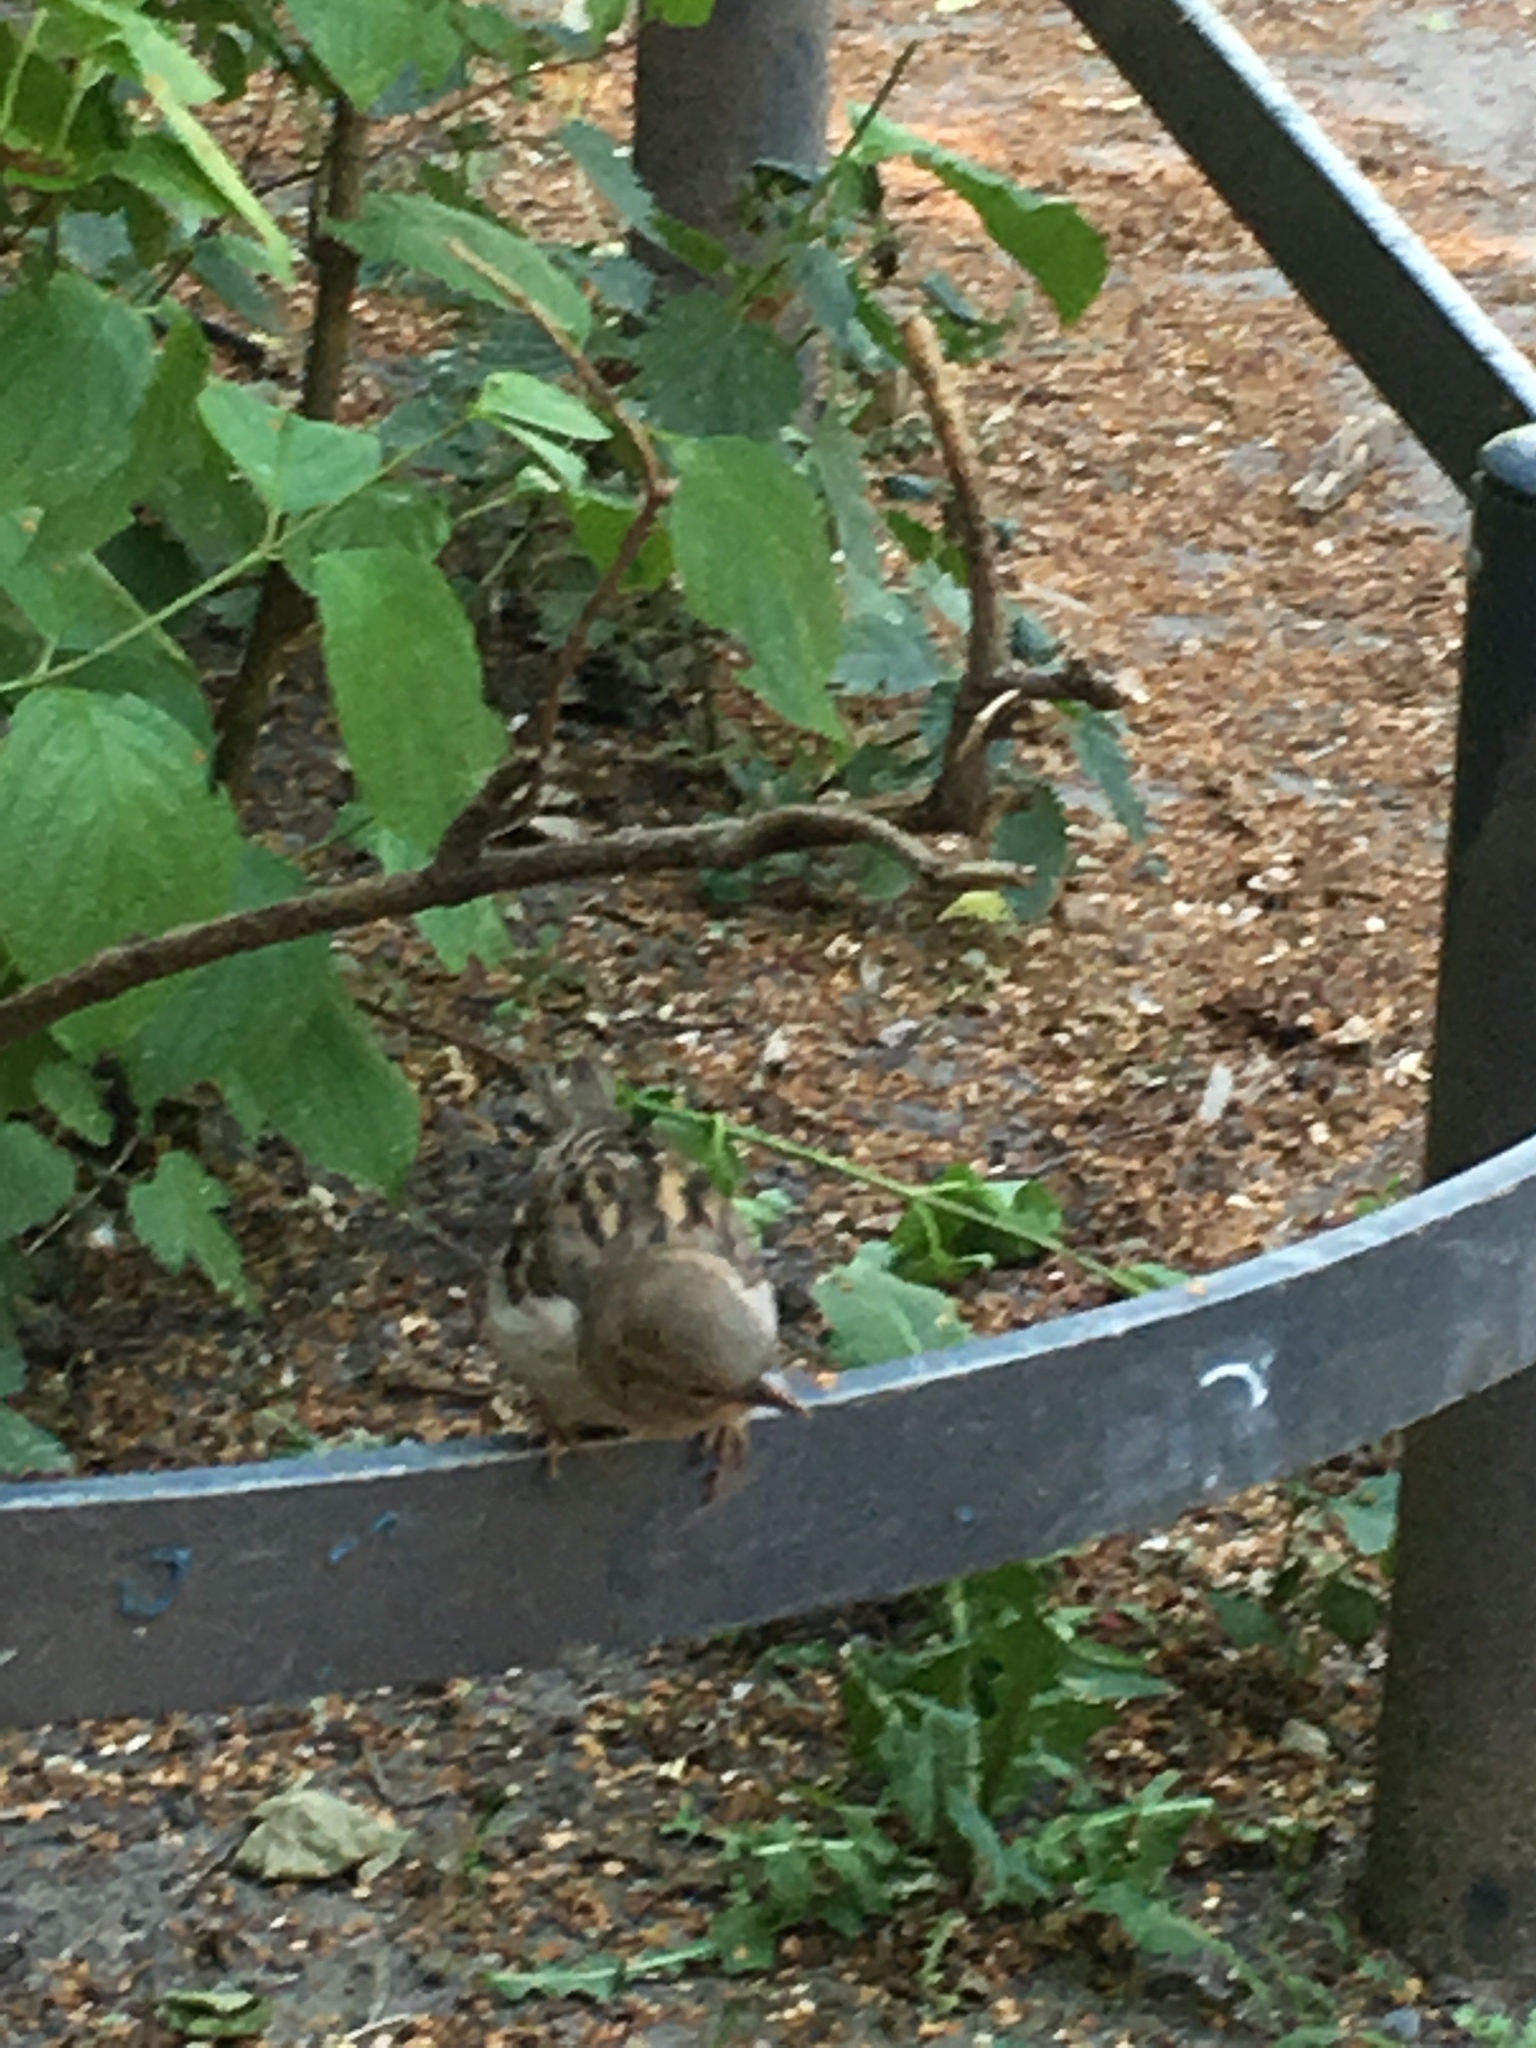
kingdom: Animalia
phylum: Chordata
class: Aves
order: Passeriformes
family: Passeridae
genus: Passer
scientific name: Passer domesticus
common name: House sparrow
